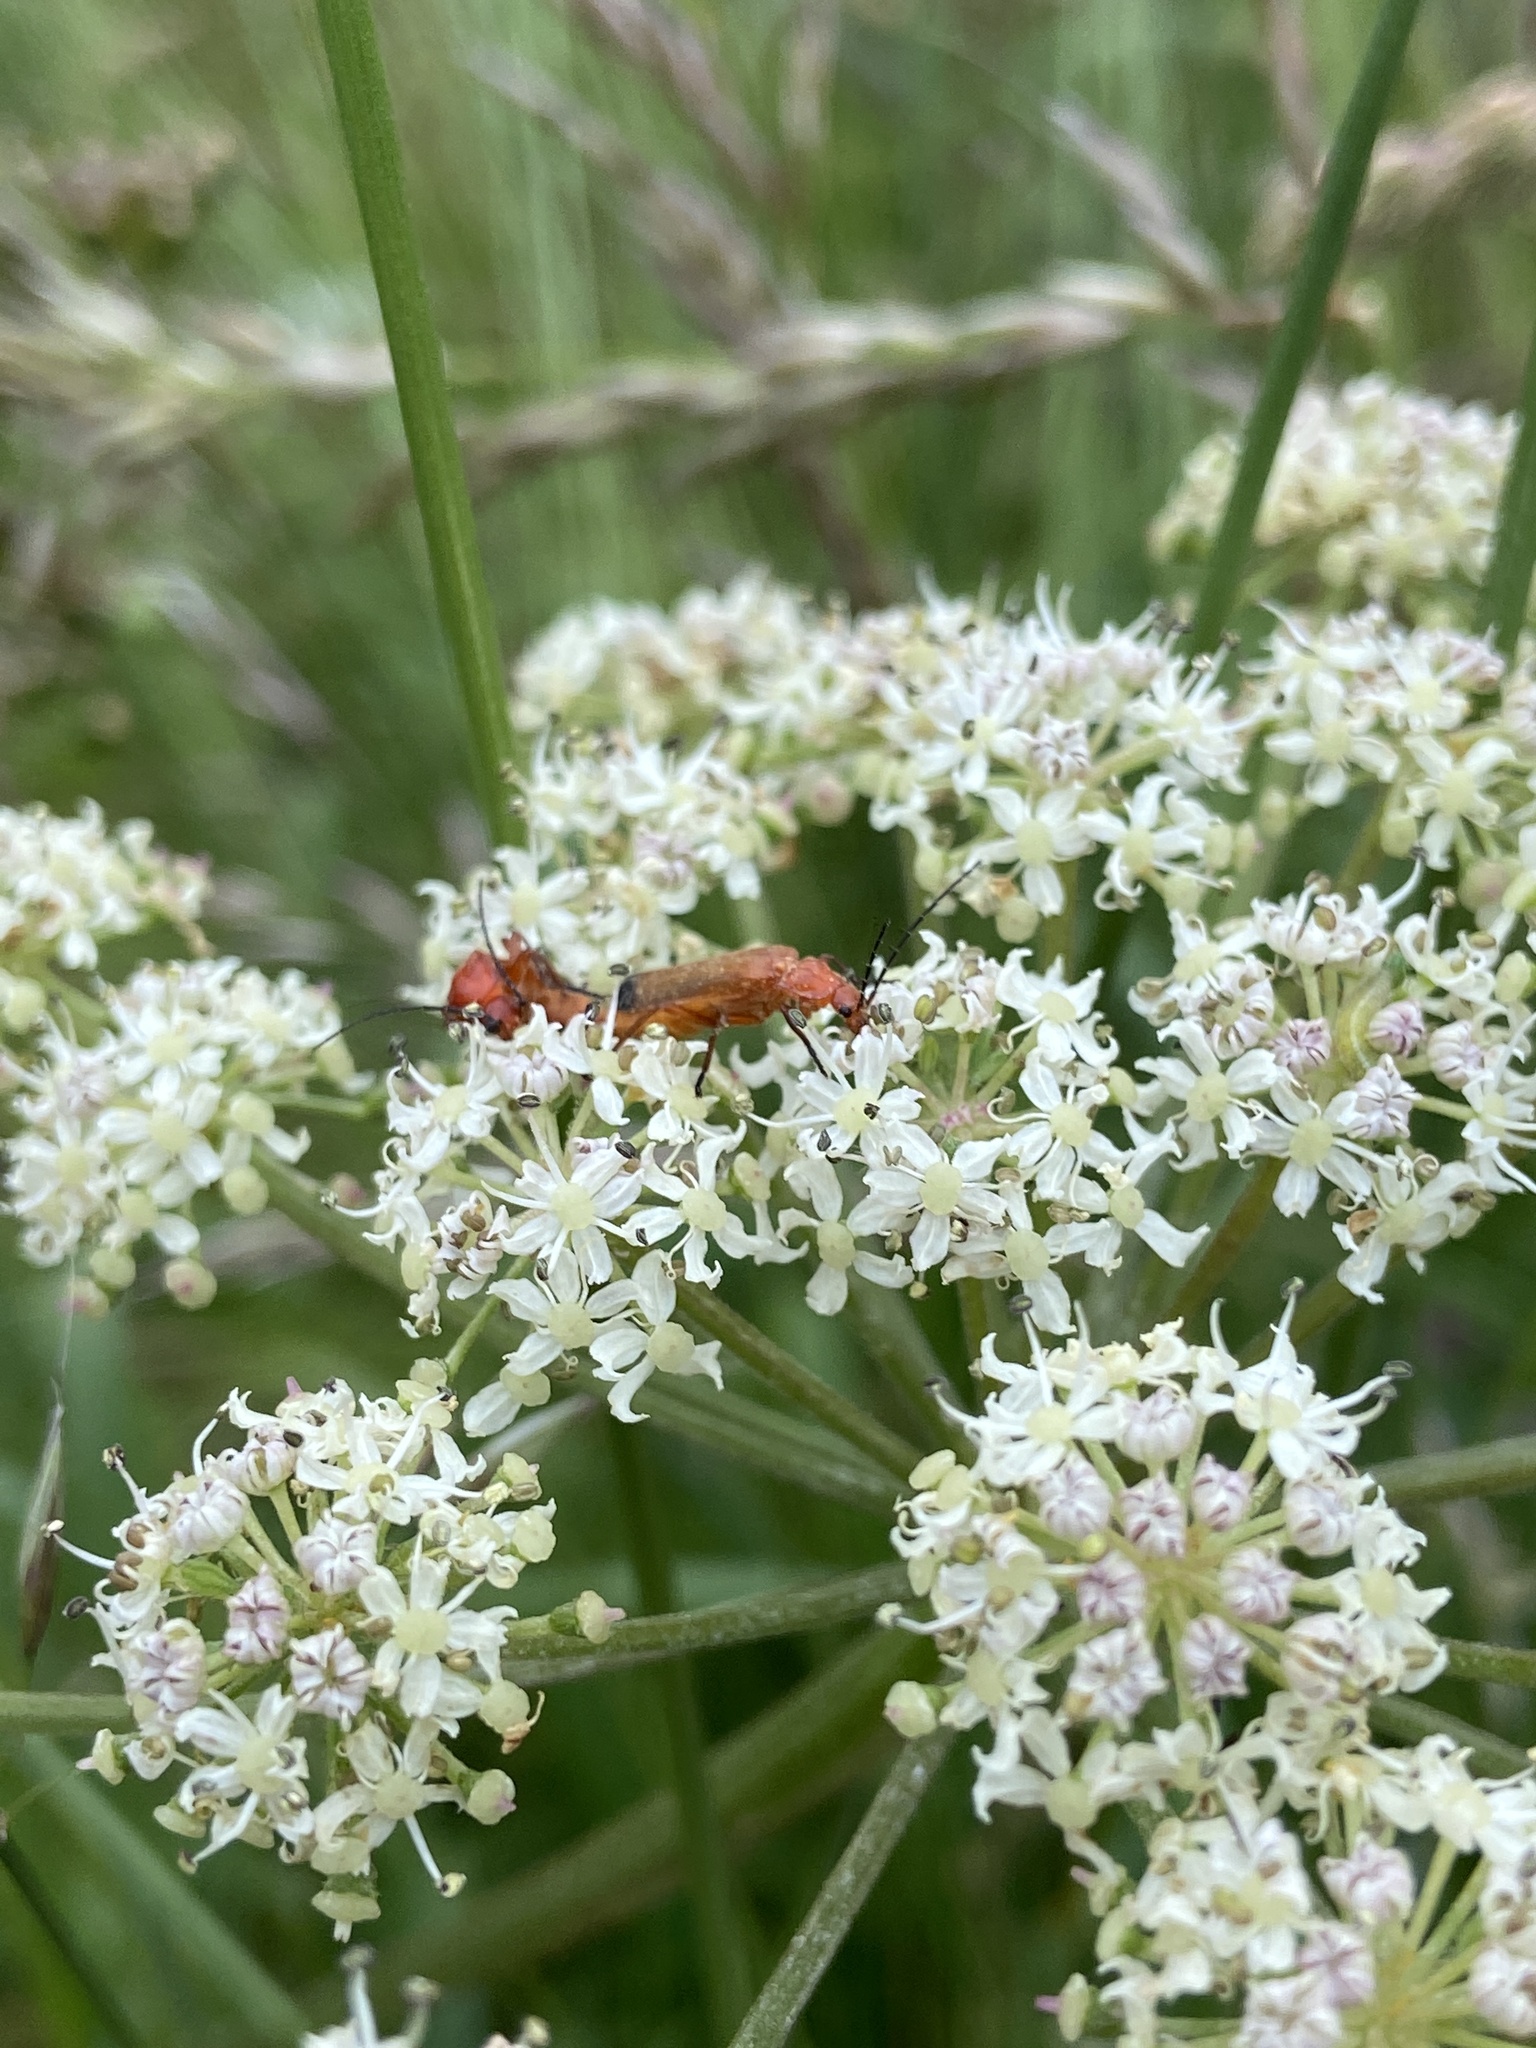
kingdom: Animalia
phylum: Arthropoda
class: Insecta
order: Coleoptera
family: Cantharidae
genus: Rhagonycha
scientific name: Rhagonycha fulva
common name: Common red soldier beetle
